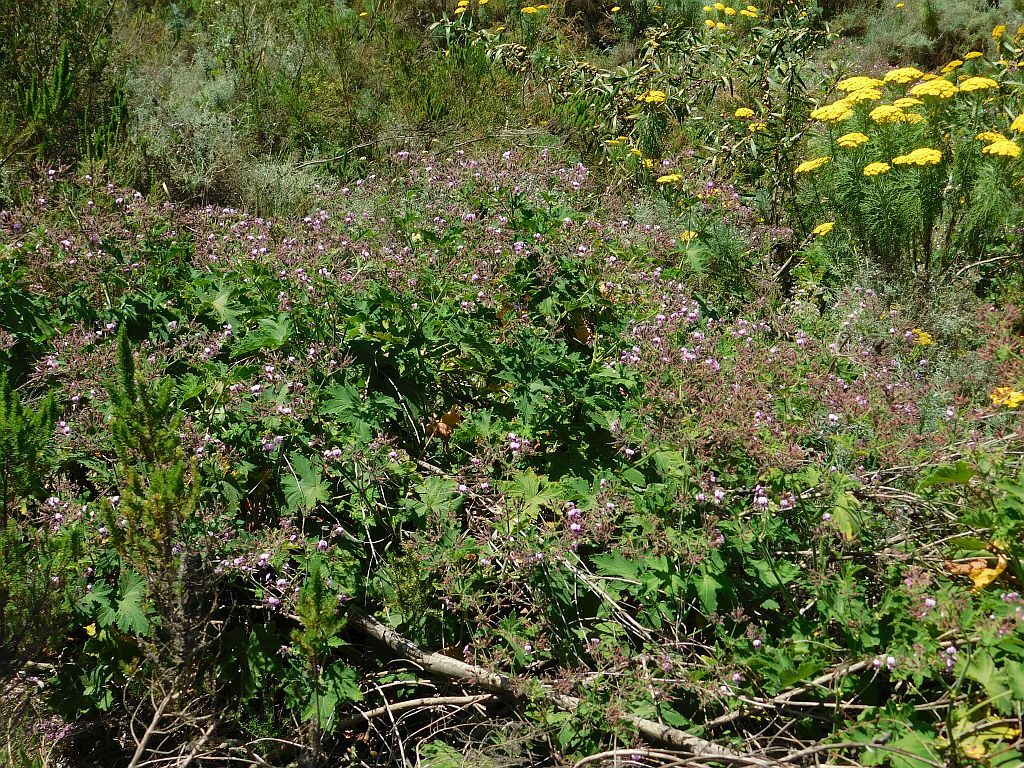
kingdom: Plantae
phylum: Tracheophyta
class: Magnoliopsida
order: Geraniales
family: Geraniaceae
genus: Pelargonium
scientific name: Pelargonium hispidum
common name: Hispid pelargonium
